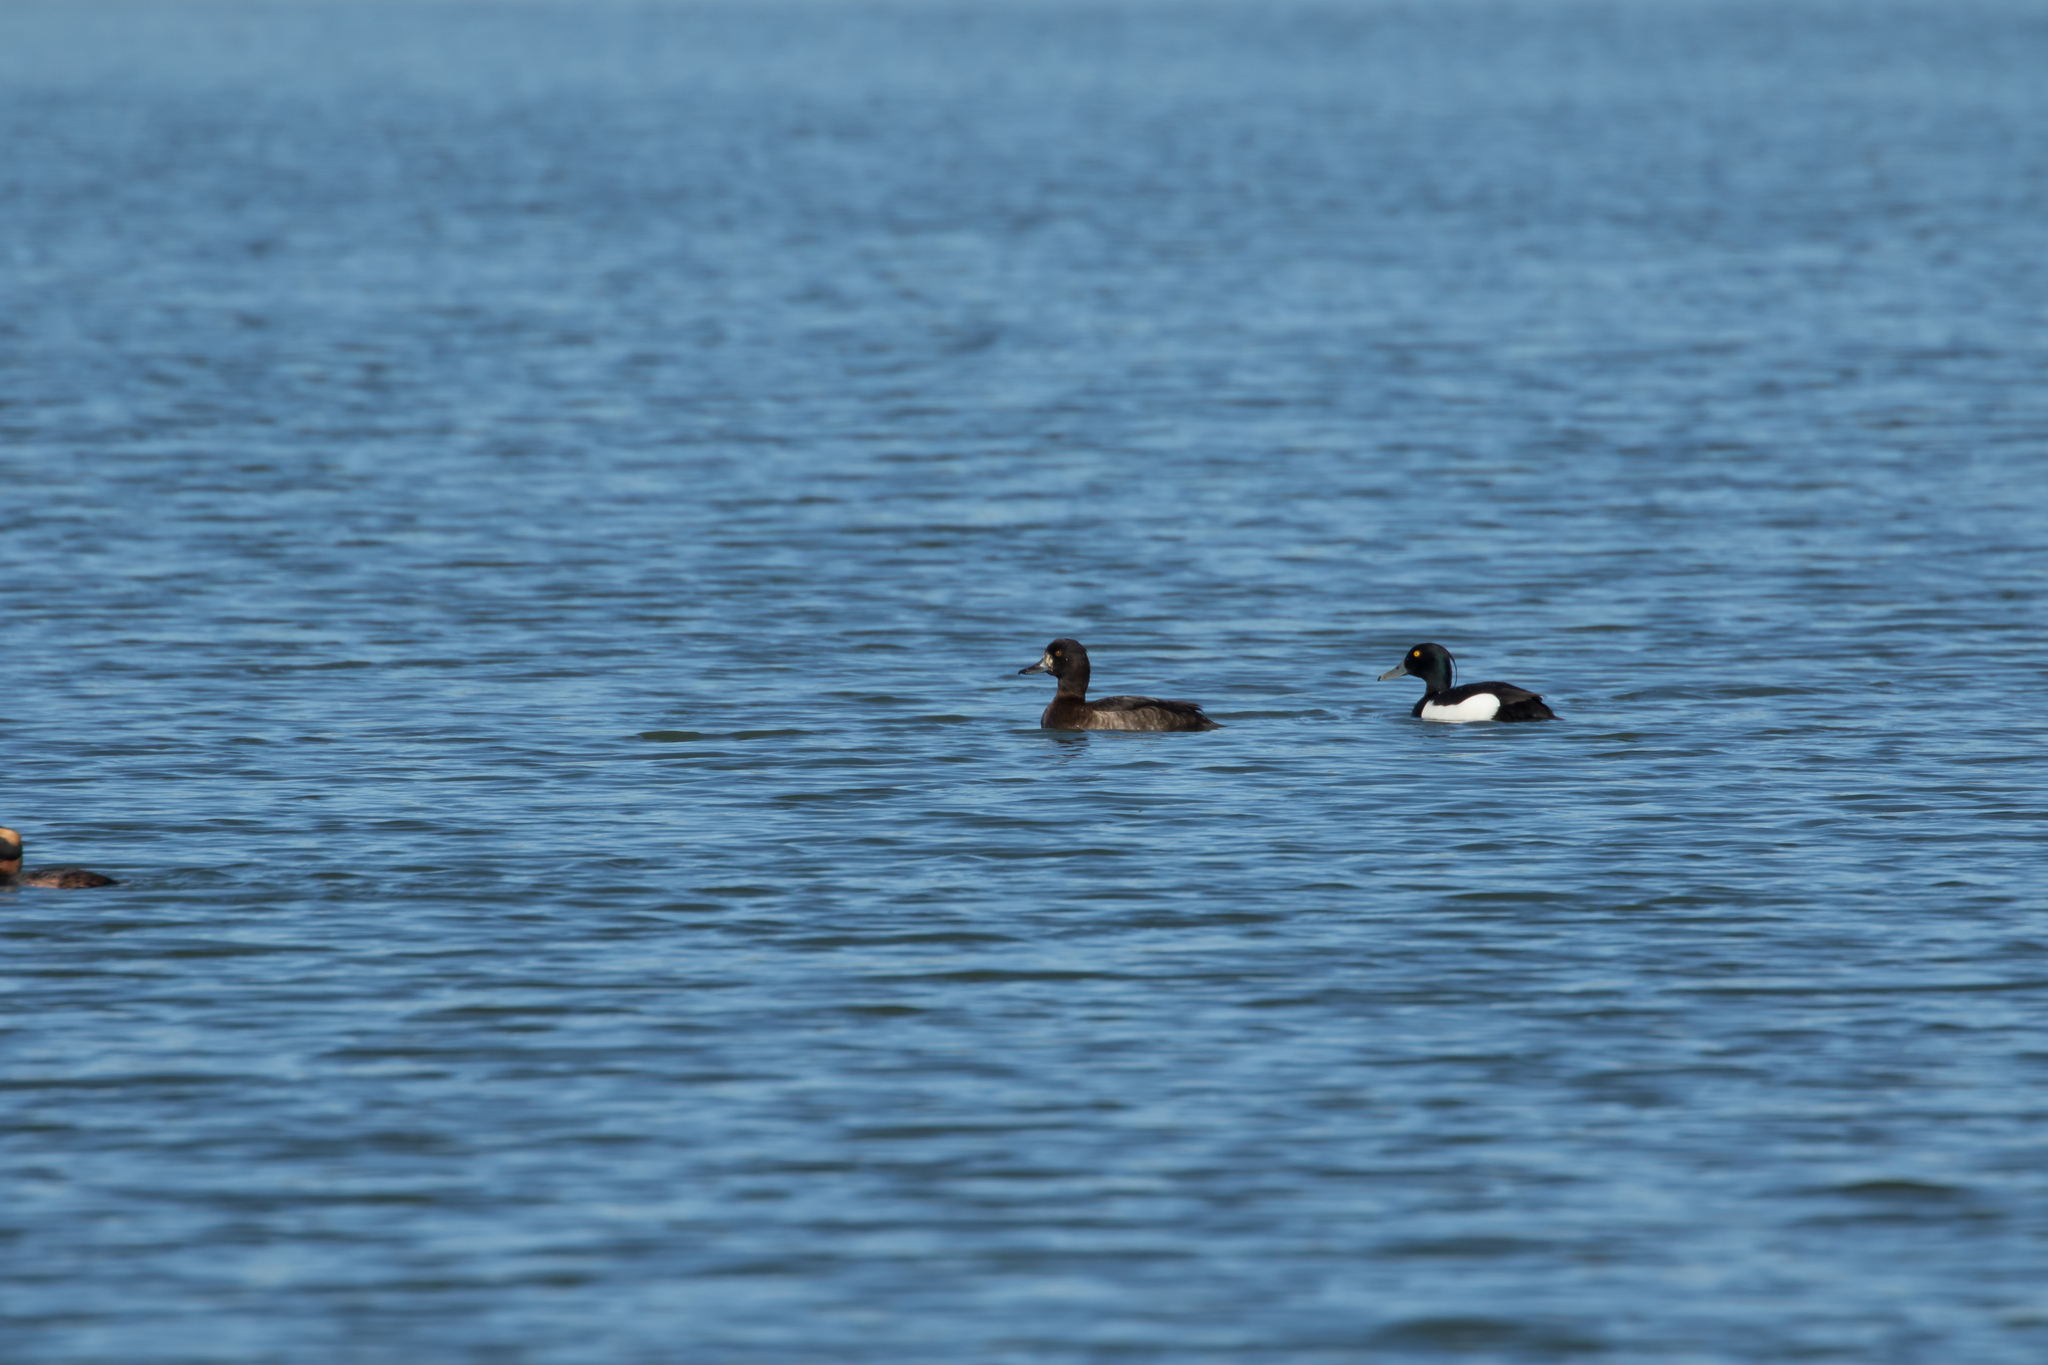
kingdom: Animalia
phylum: Chordata
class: Aves
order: Anseriformes
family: Anatidae
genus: Aythya
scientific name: Aythya fuligula
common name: Tufted duck
